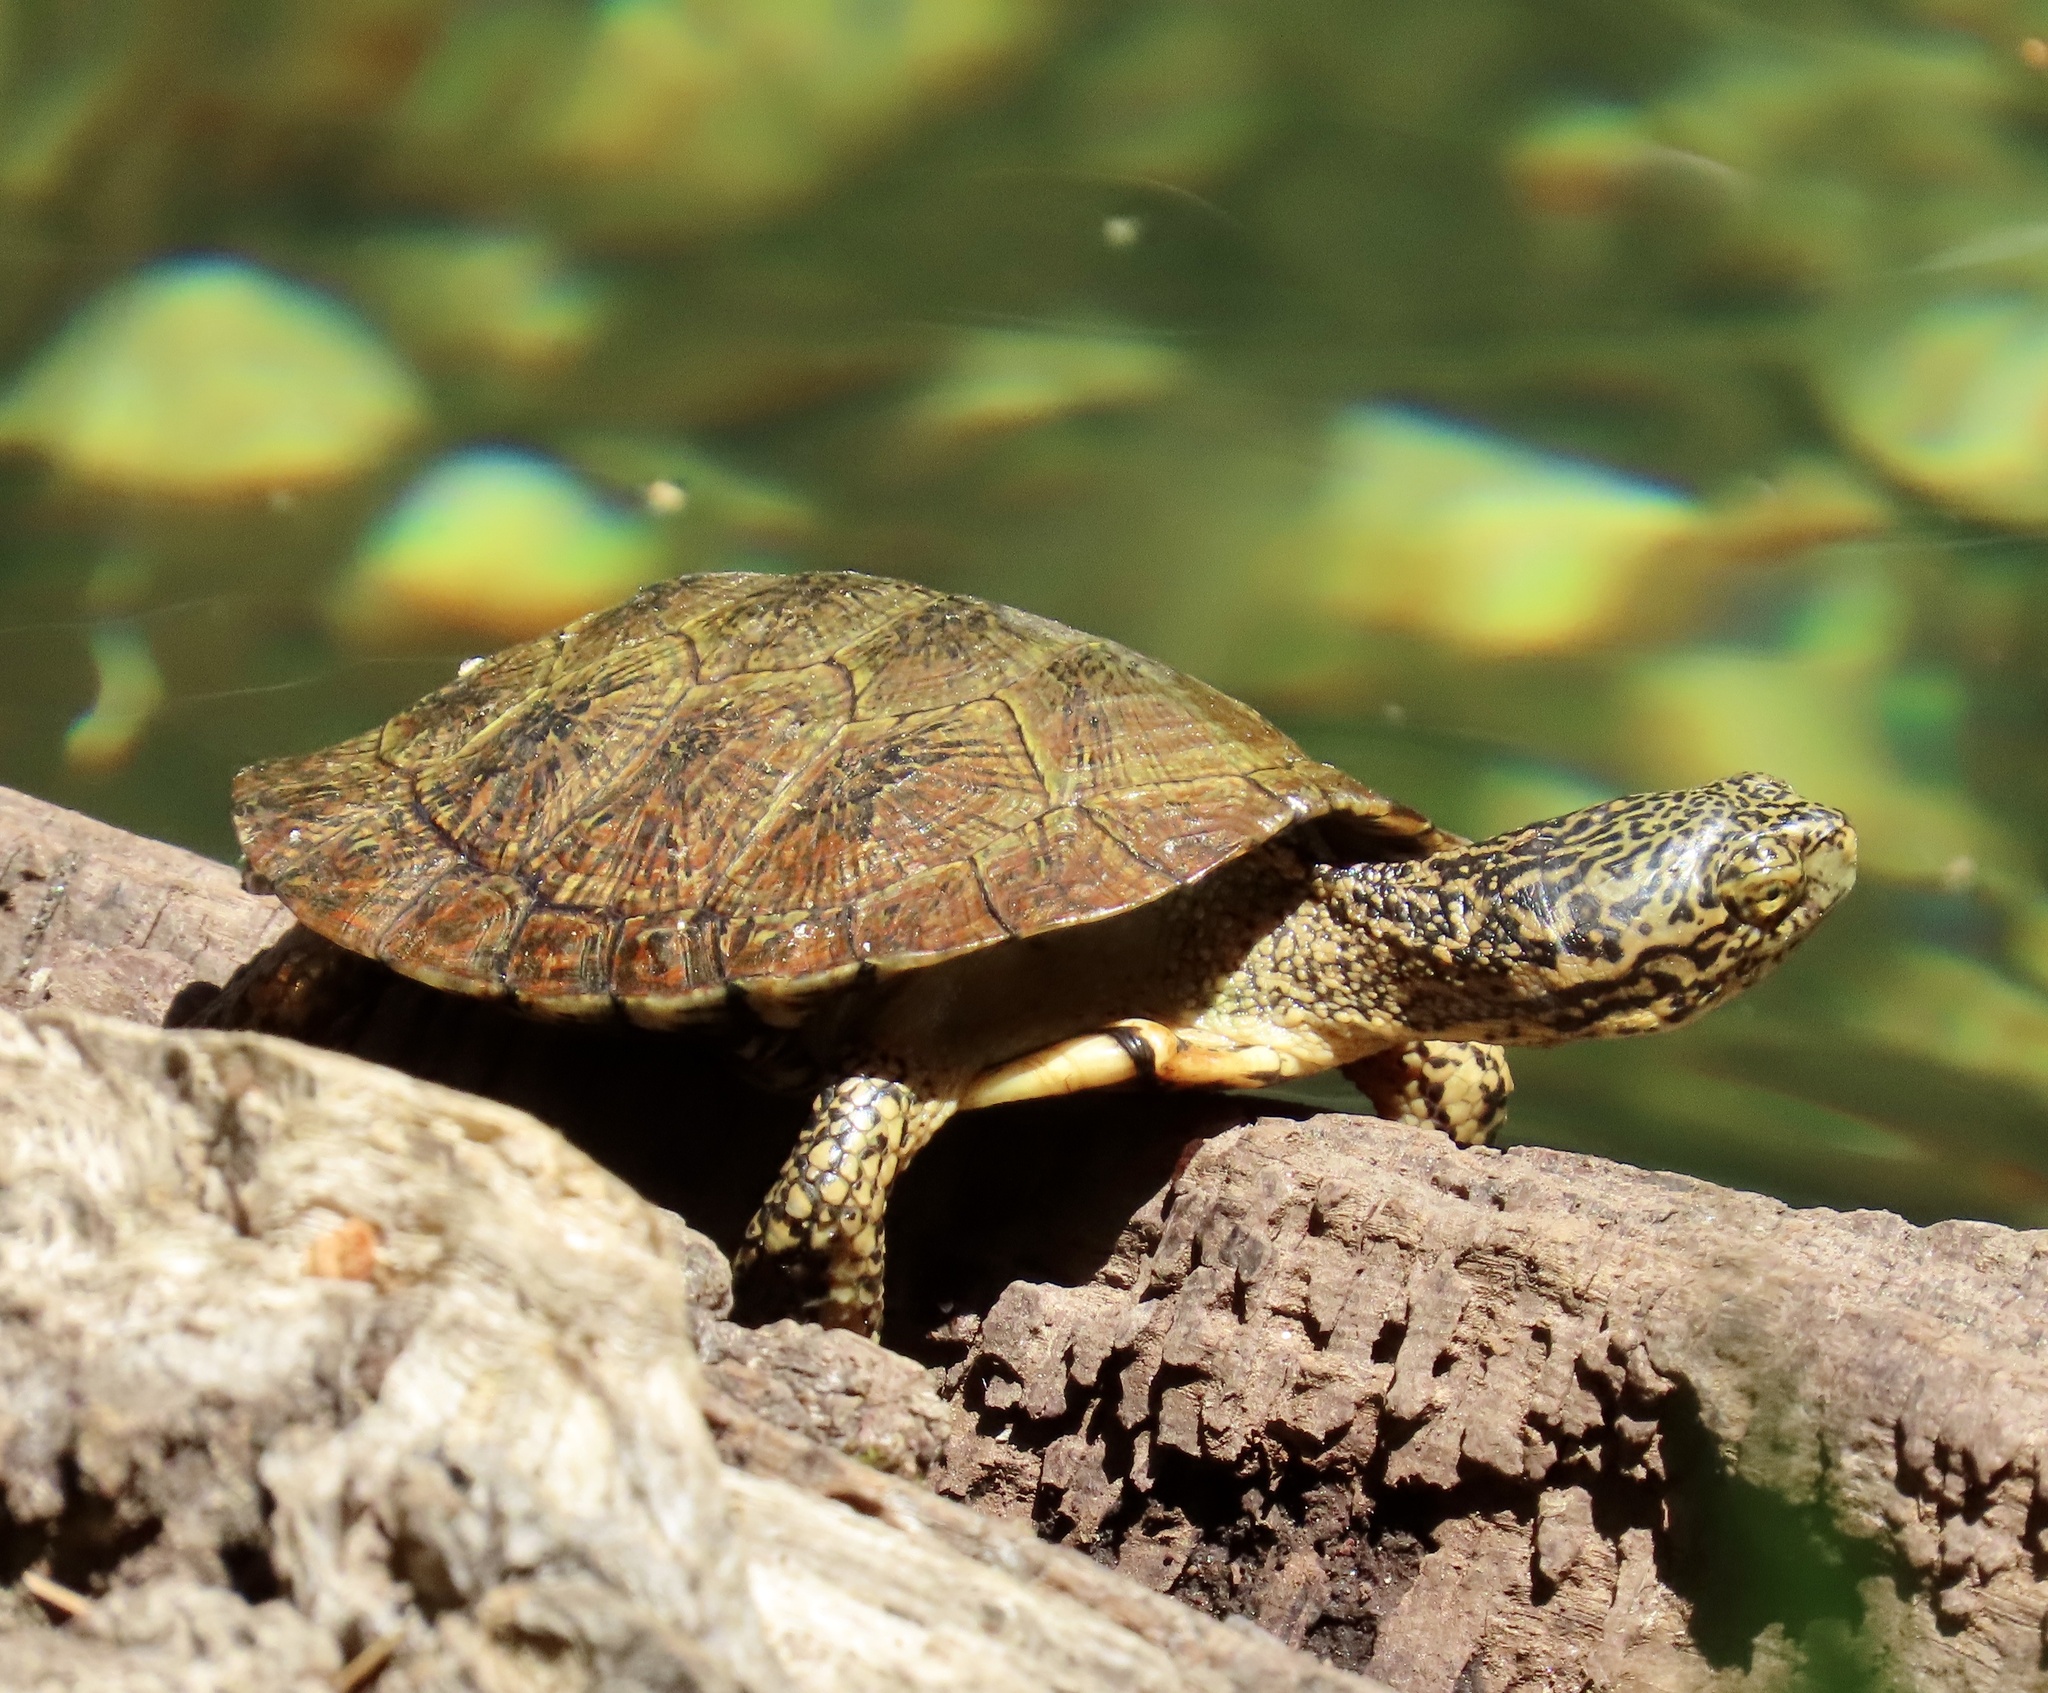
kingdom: Animalia
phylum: Chordata
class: Testudines
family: Emydidae
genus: Actinemys
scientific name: Actinemys marmorata
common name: Western pond turtle
